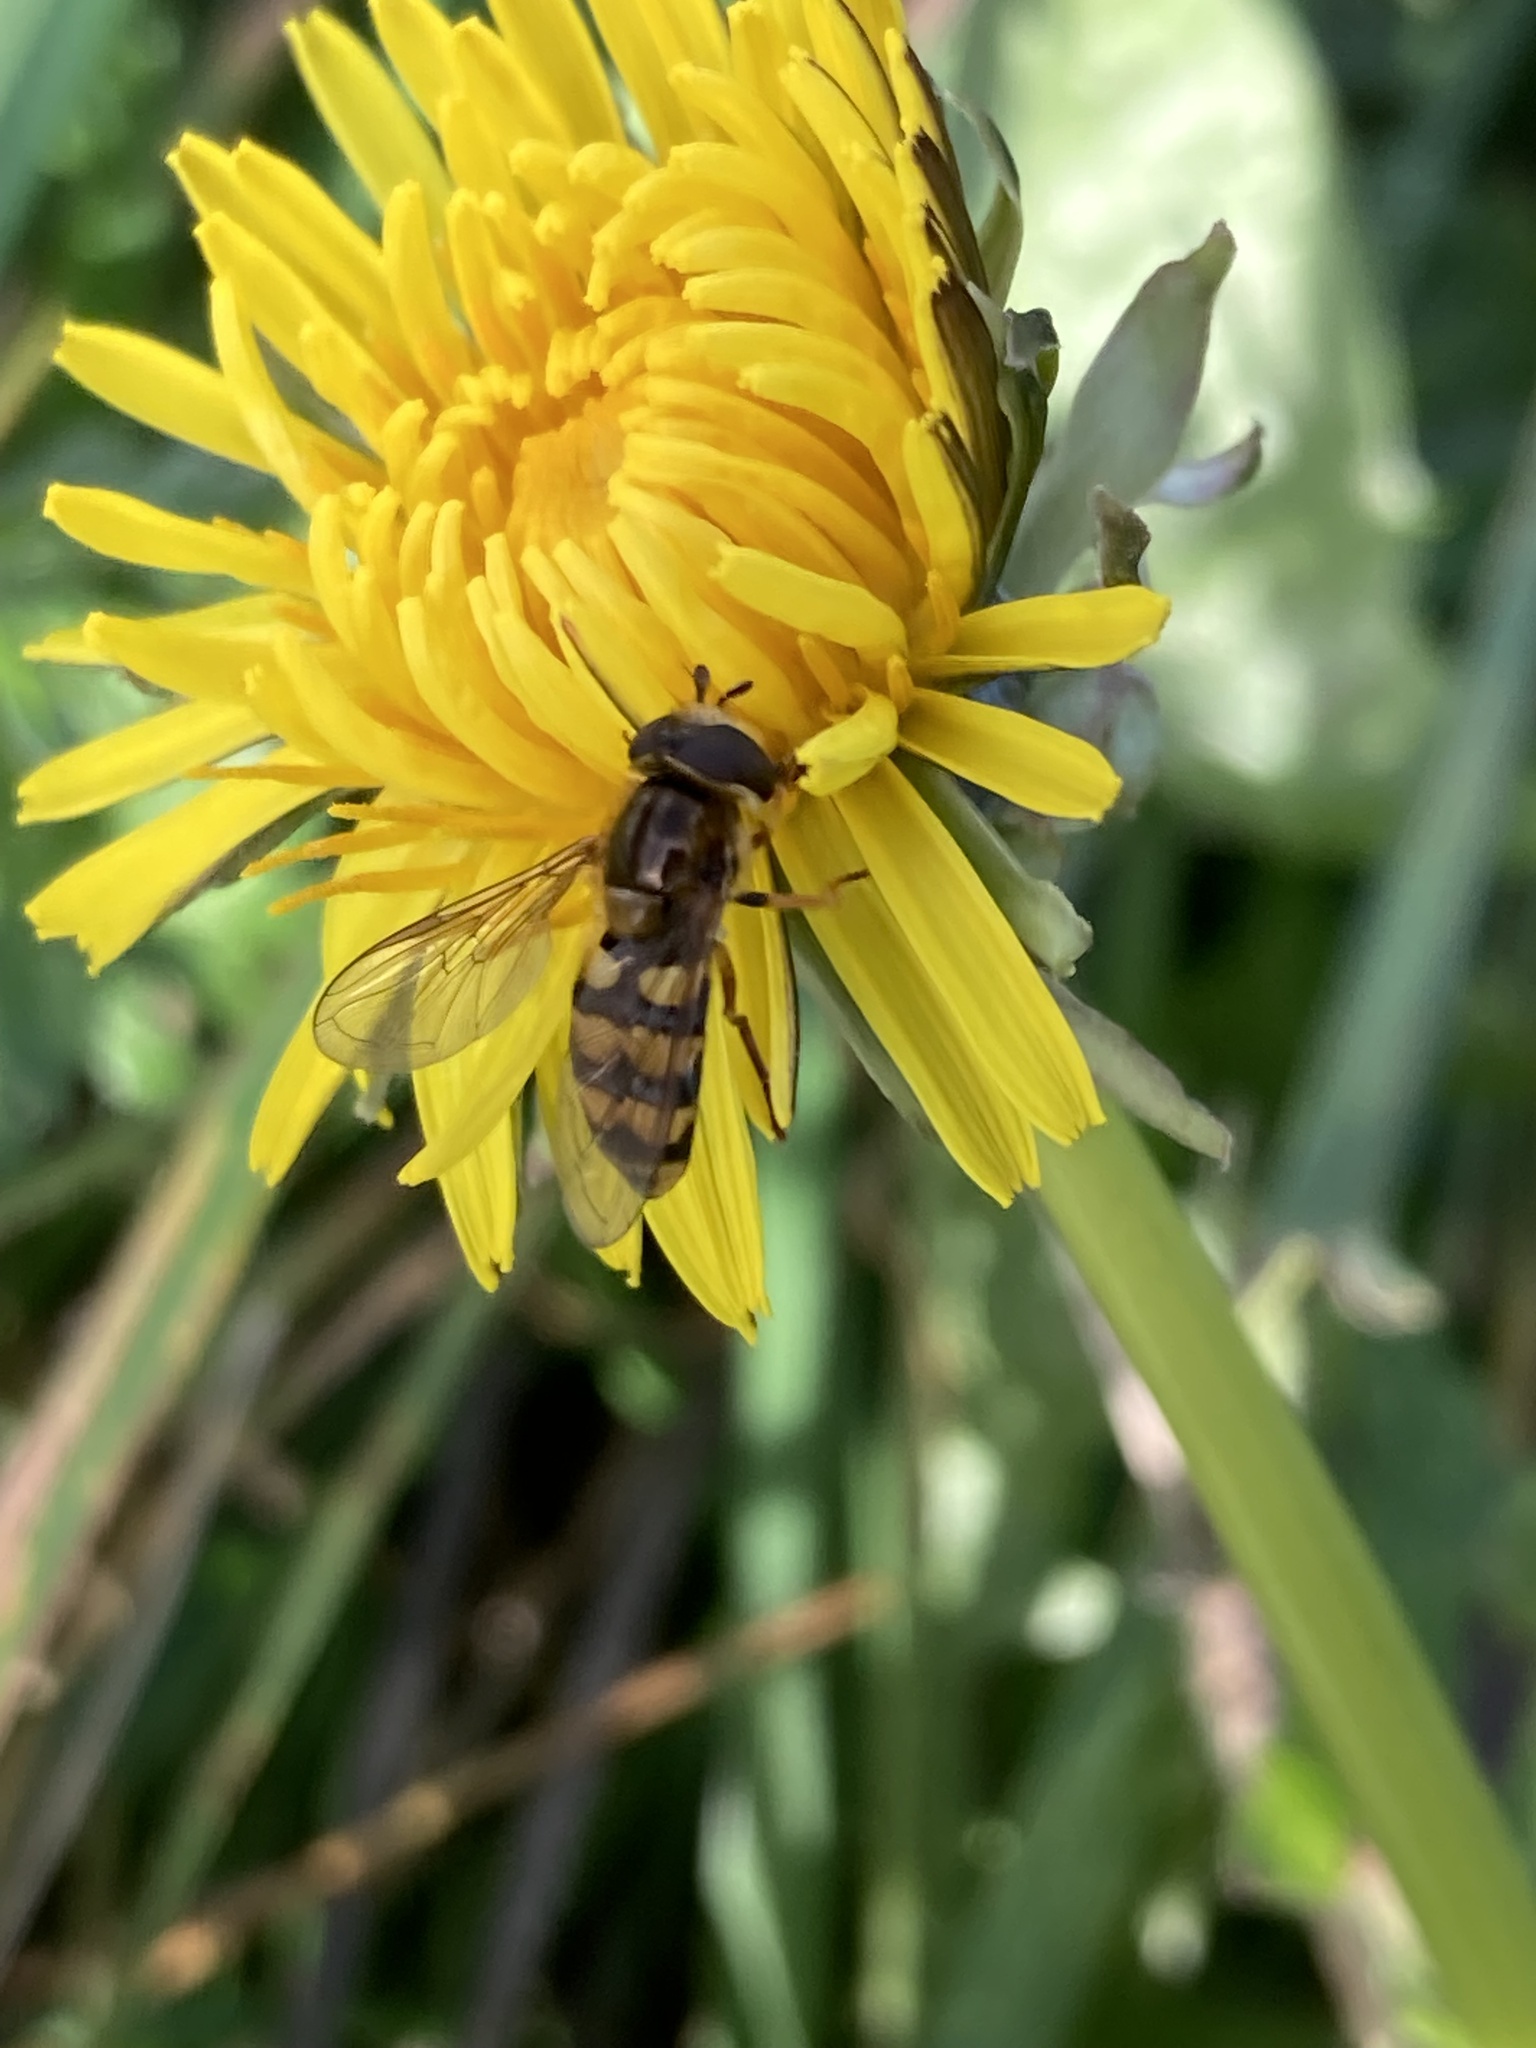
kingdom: Animalia
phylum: Arthropoda
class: Insecta
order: Diptera
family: Syrphidae
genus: Eupeodes
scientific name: Eupeodes latifasciatus
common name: Variable aphideater
